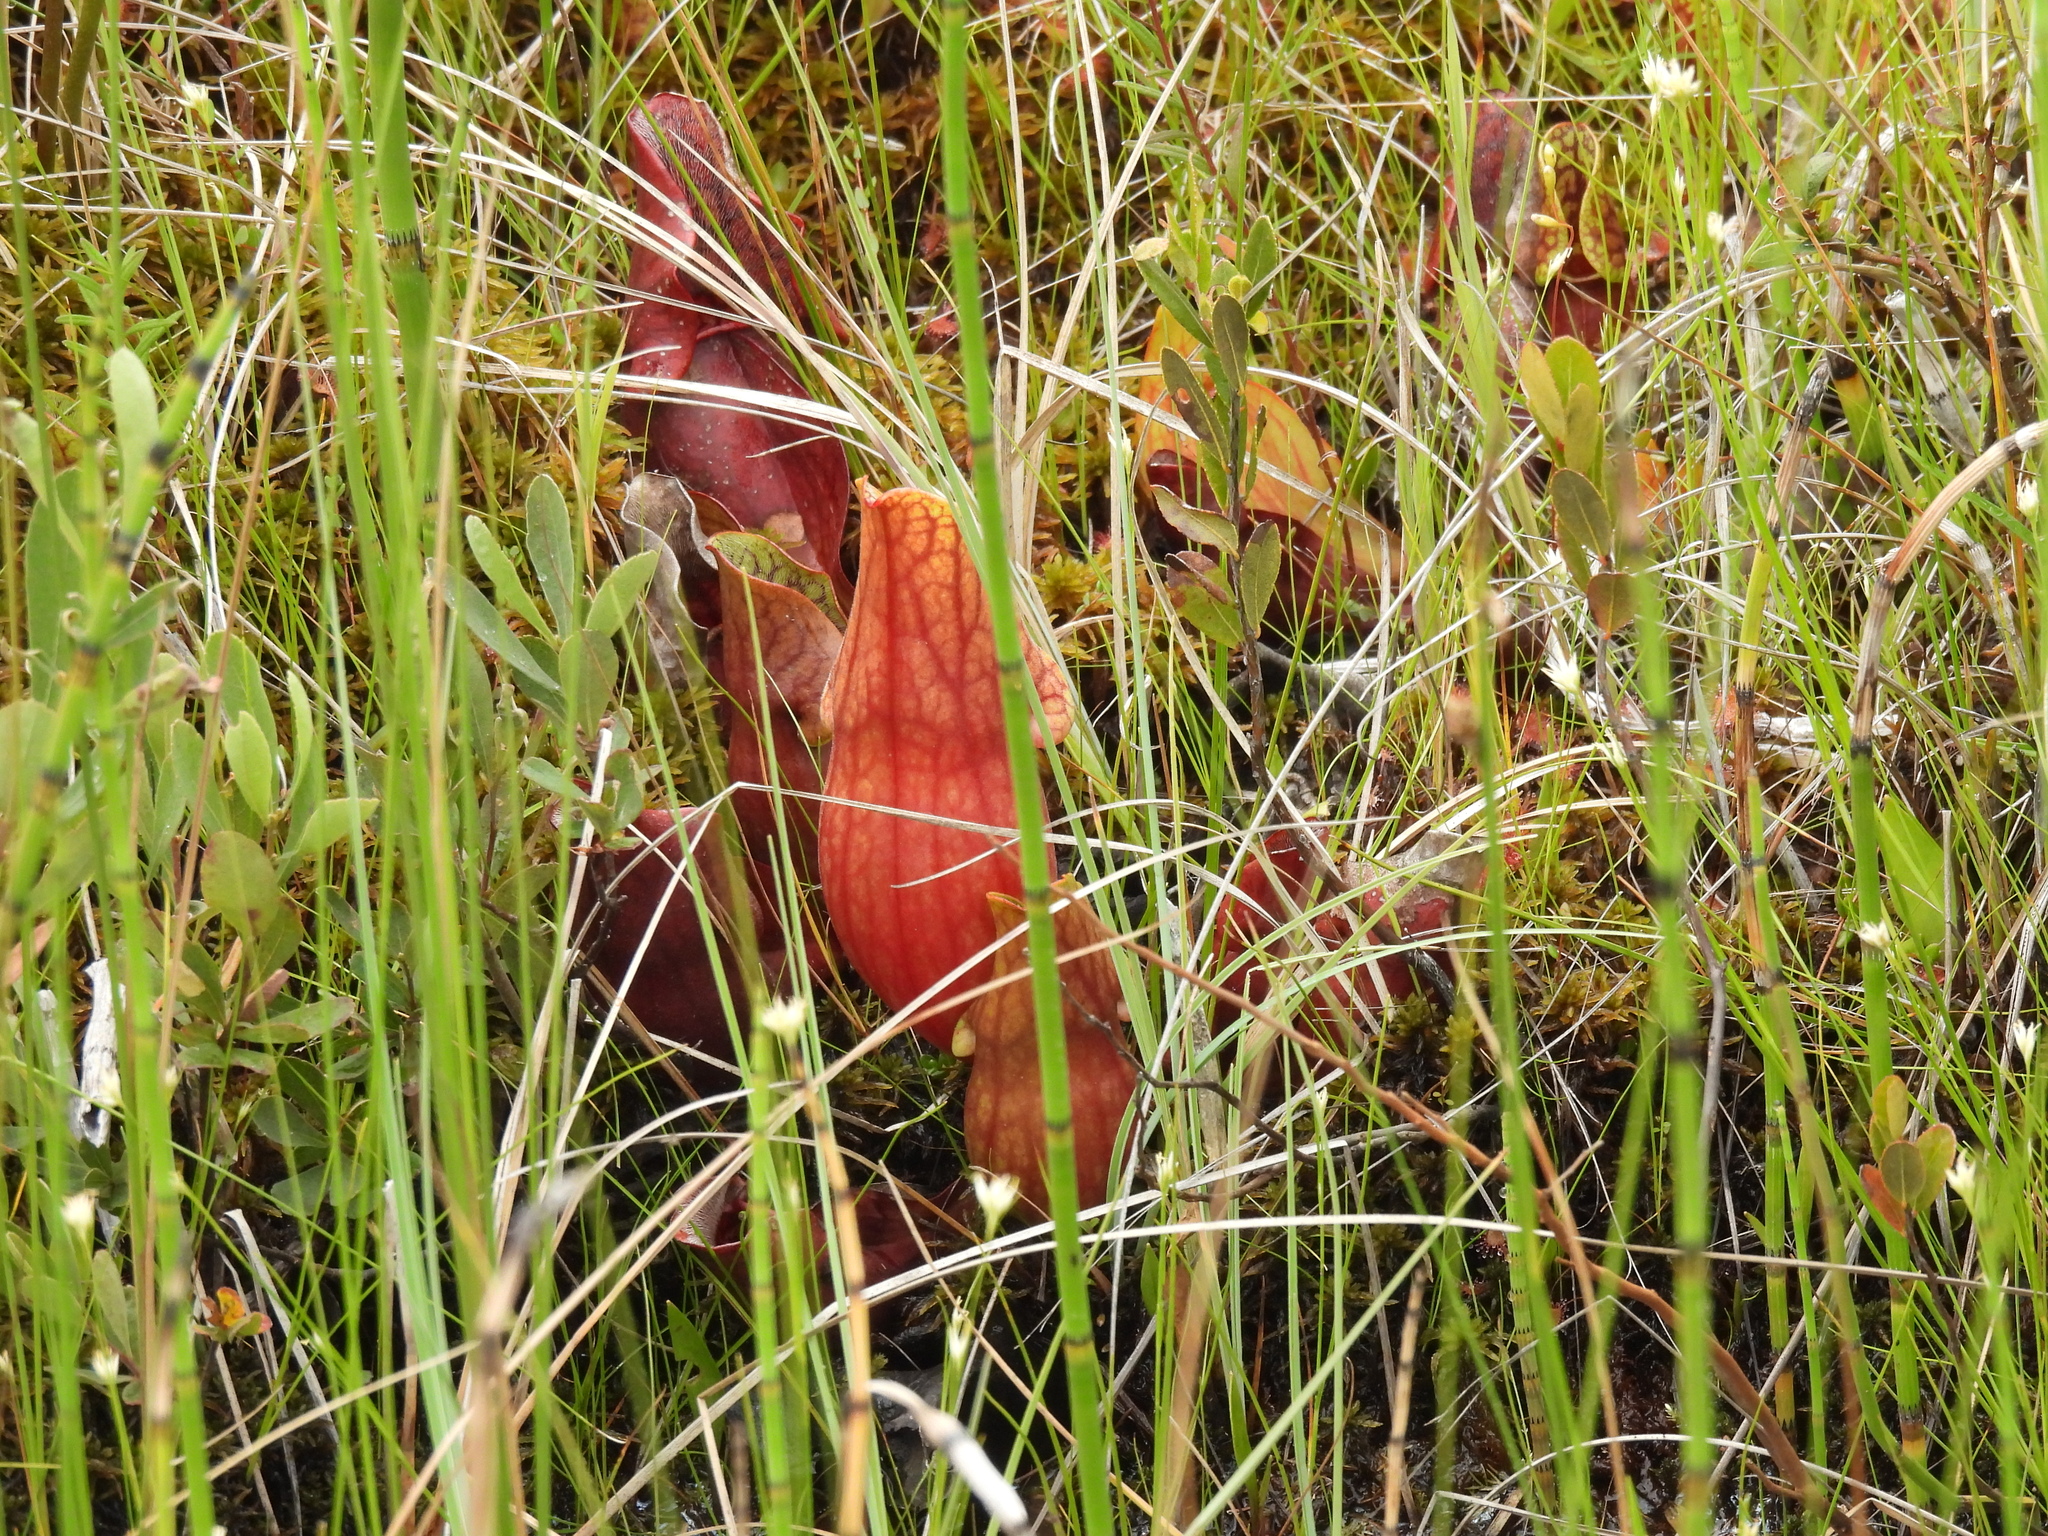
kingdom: Plantae
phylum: Tracheophyta
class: Magnoliopsida
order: Ericales
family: Sarraceniaceae
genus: Sarracenia
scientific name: Sarracenia purpurea
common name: Pitcherplant
